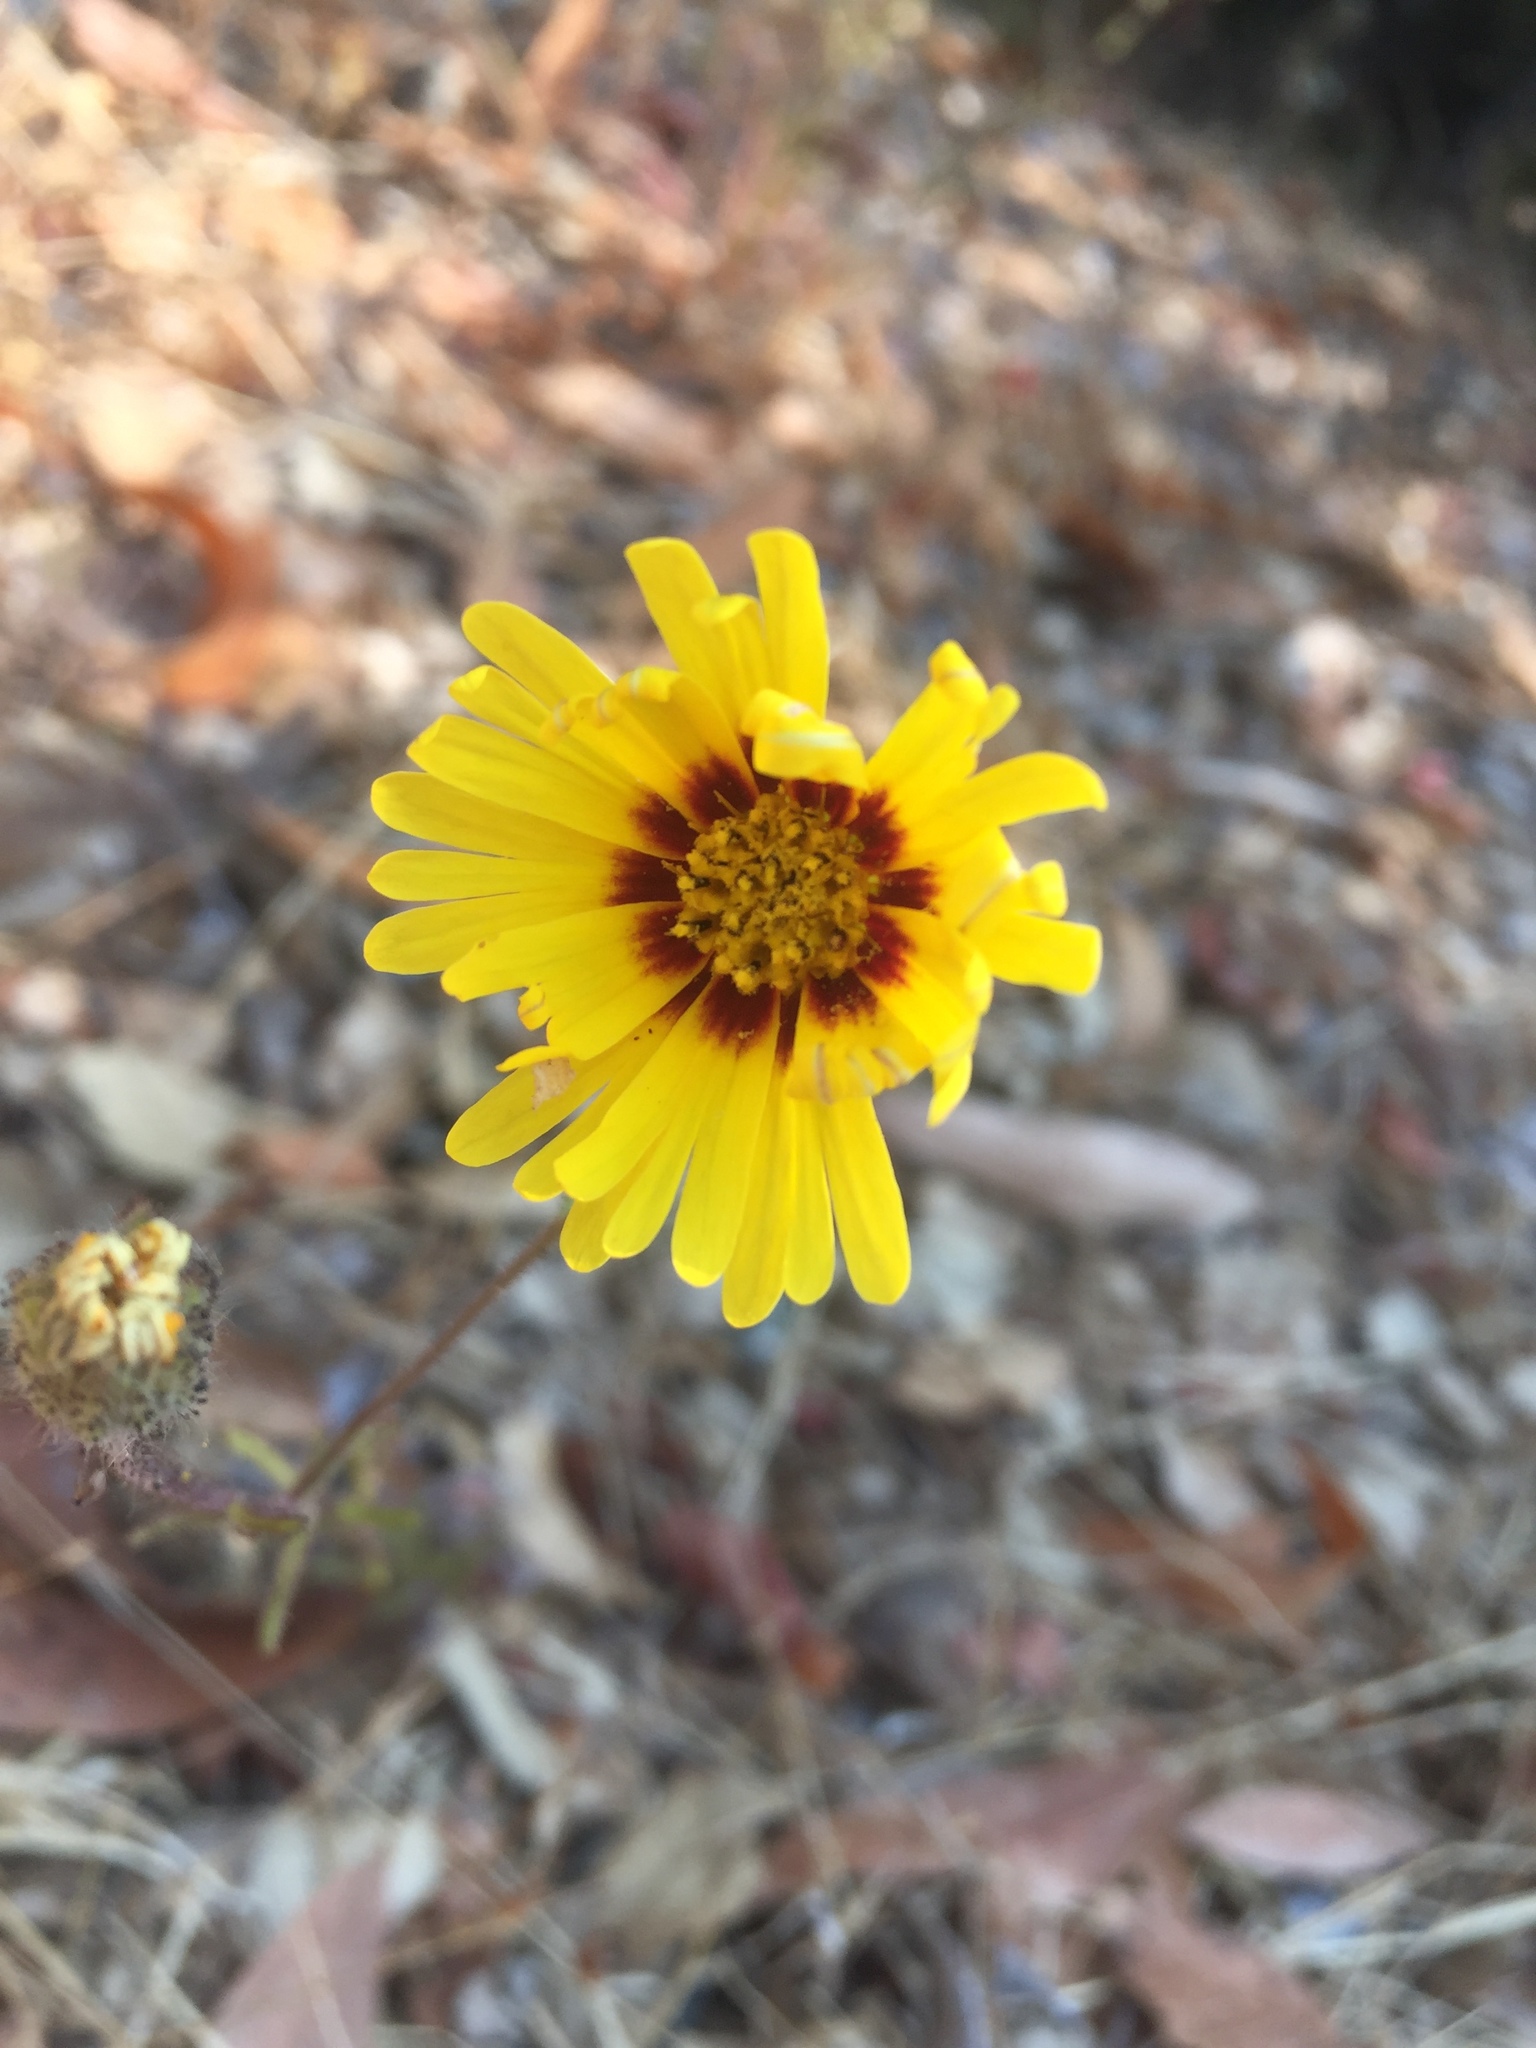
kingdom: Plantae
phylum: Tracheophyta
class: Magnoliopsida
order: Asterales
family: Asteraceae
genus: Madia
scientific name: Madia elegans
